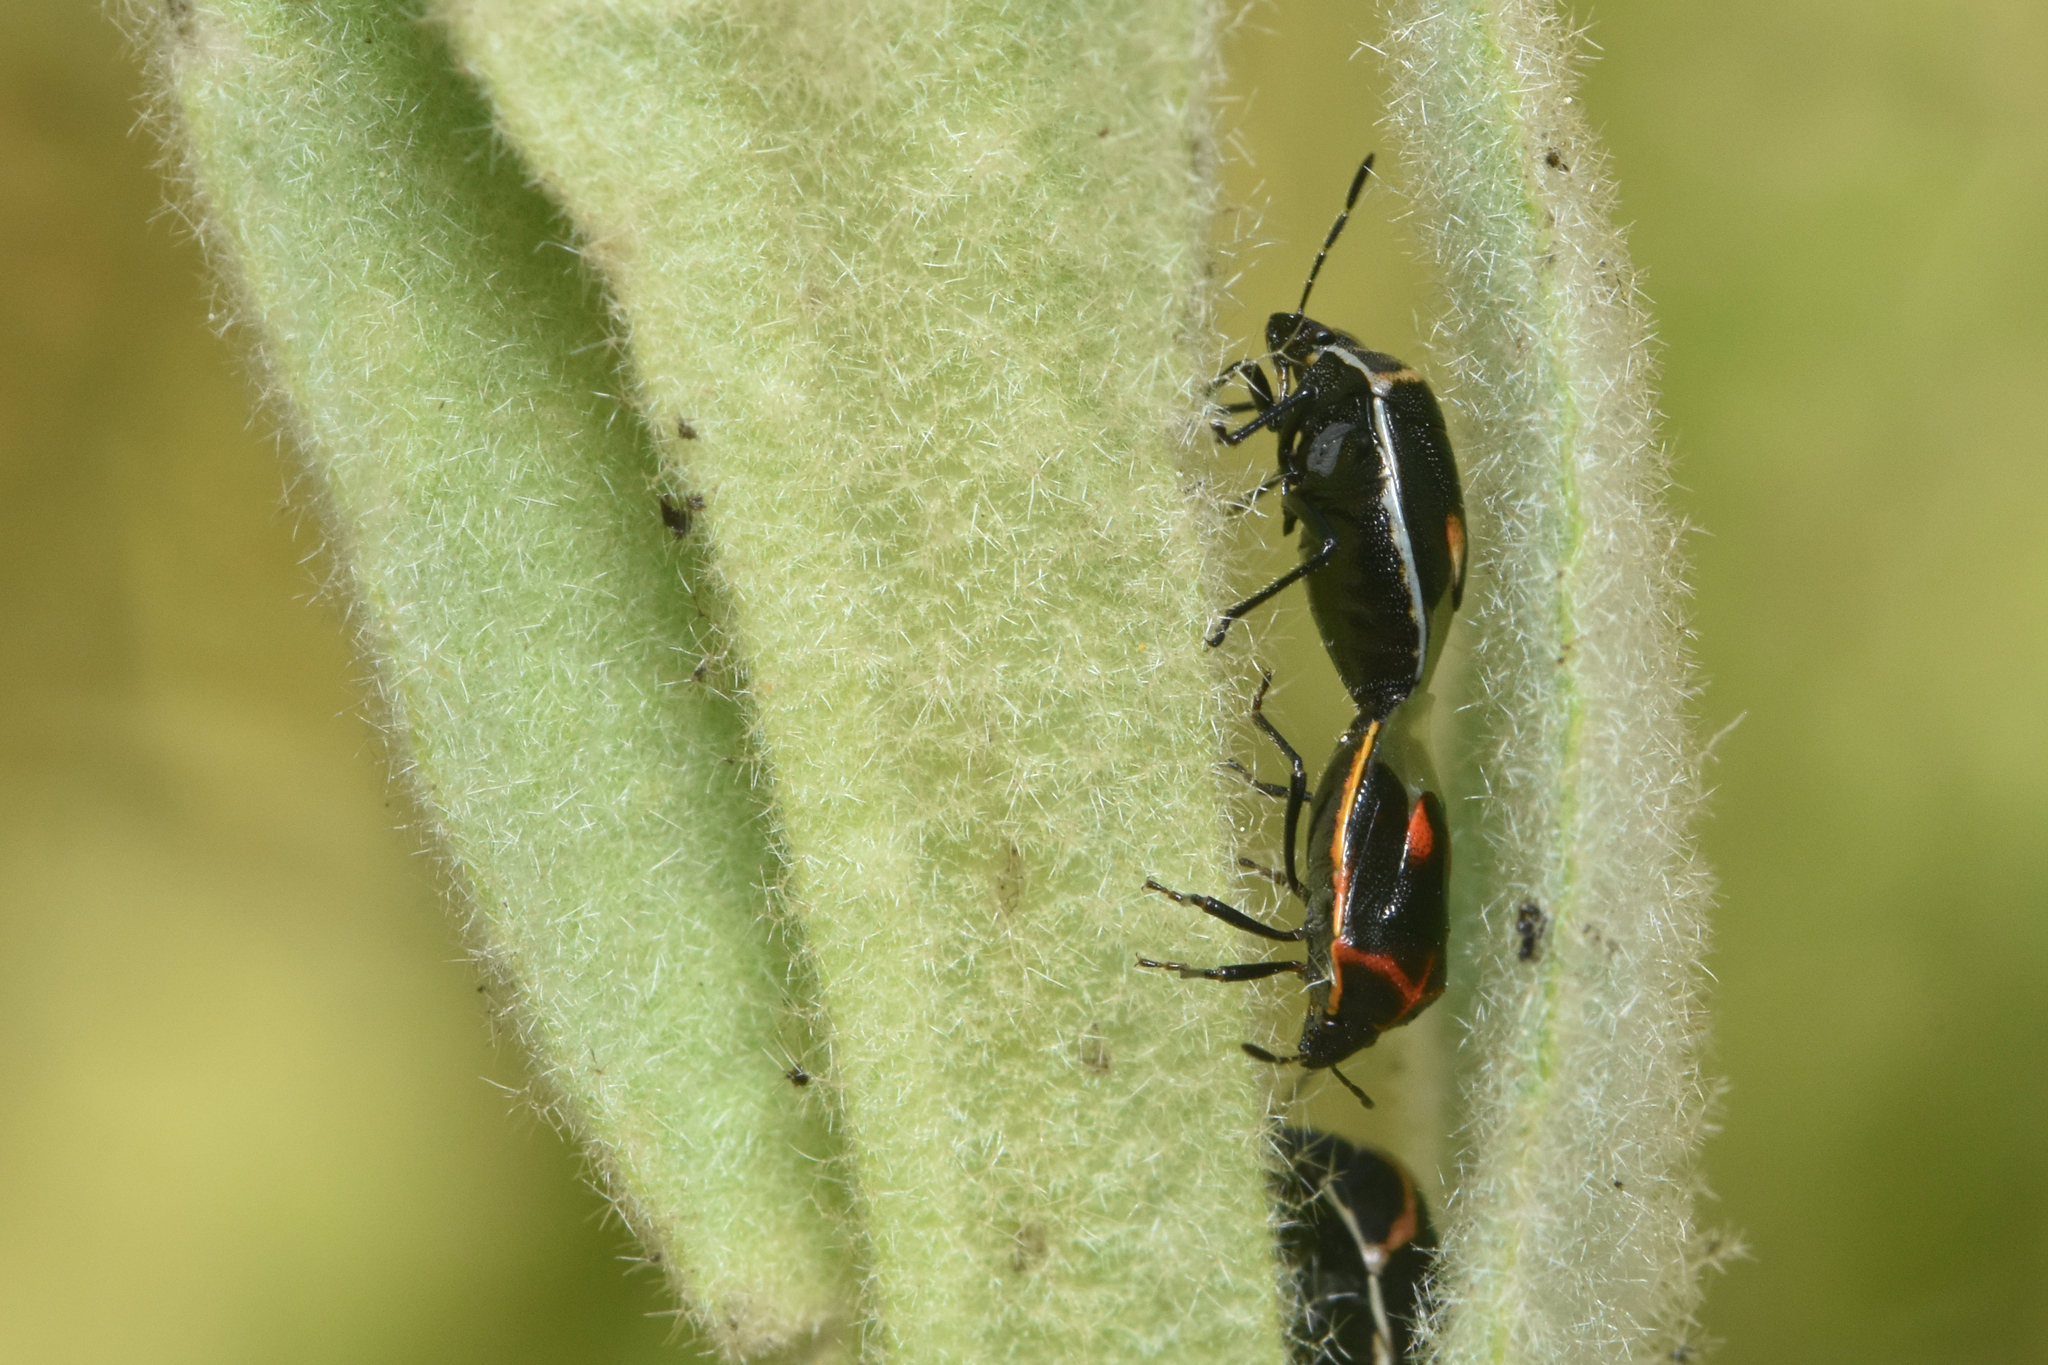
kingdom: Animalia
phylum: Arthropoda
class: Insecta
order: Hemiptera
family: Pentatomidae
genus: Cosmopepla
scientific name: Cosmopepla lintneriana
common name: Twice-stabbed stink bug
